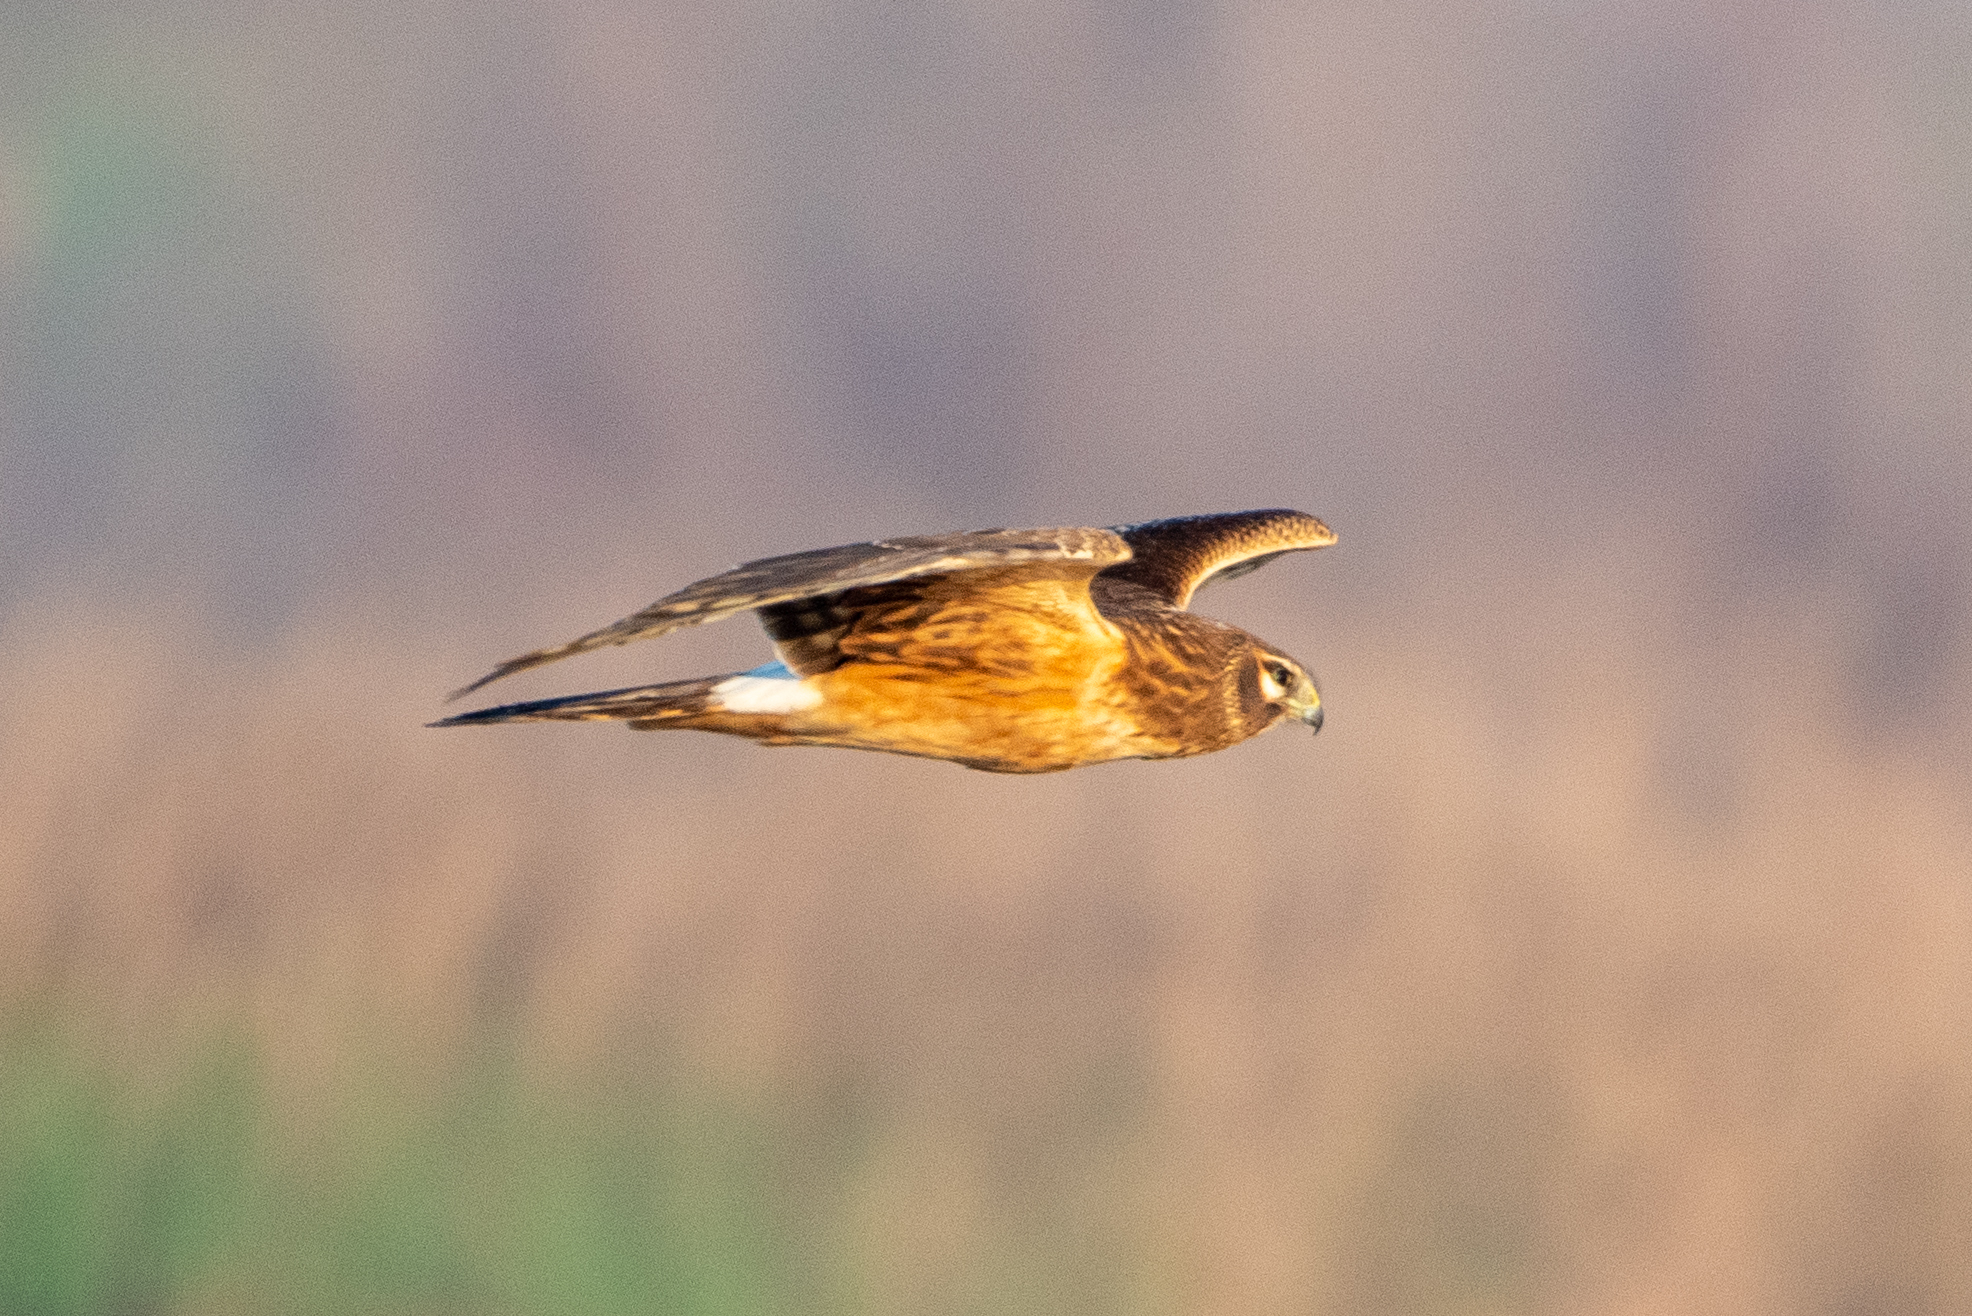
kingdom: Animalia
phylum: Chordata
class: Aves
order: Accipitriformes
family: Accipitridae
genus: Circus
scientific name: Circus cyaneus
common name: Hen harrier
